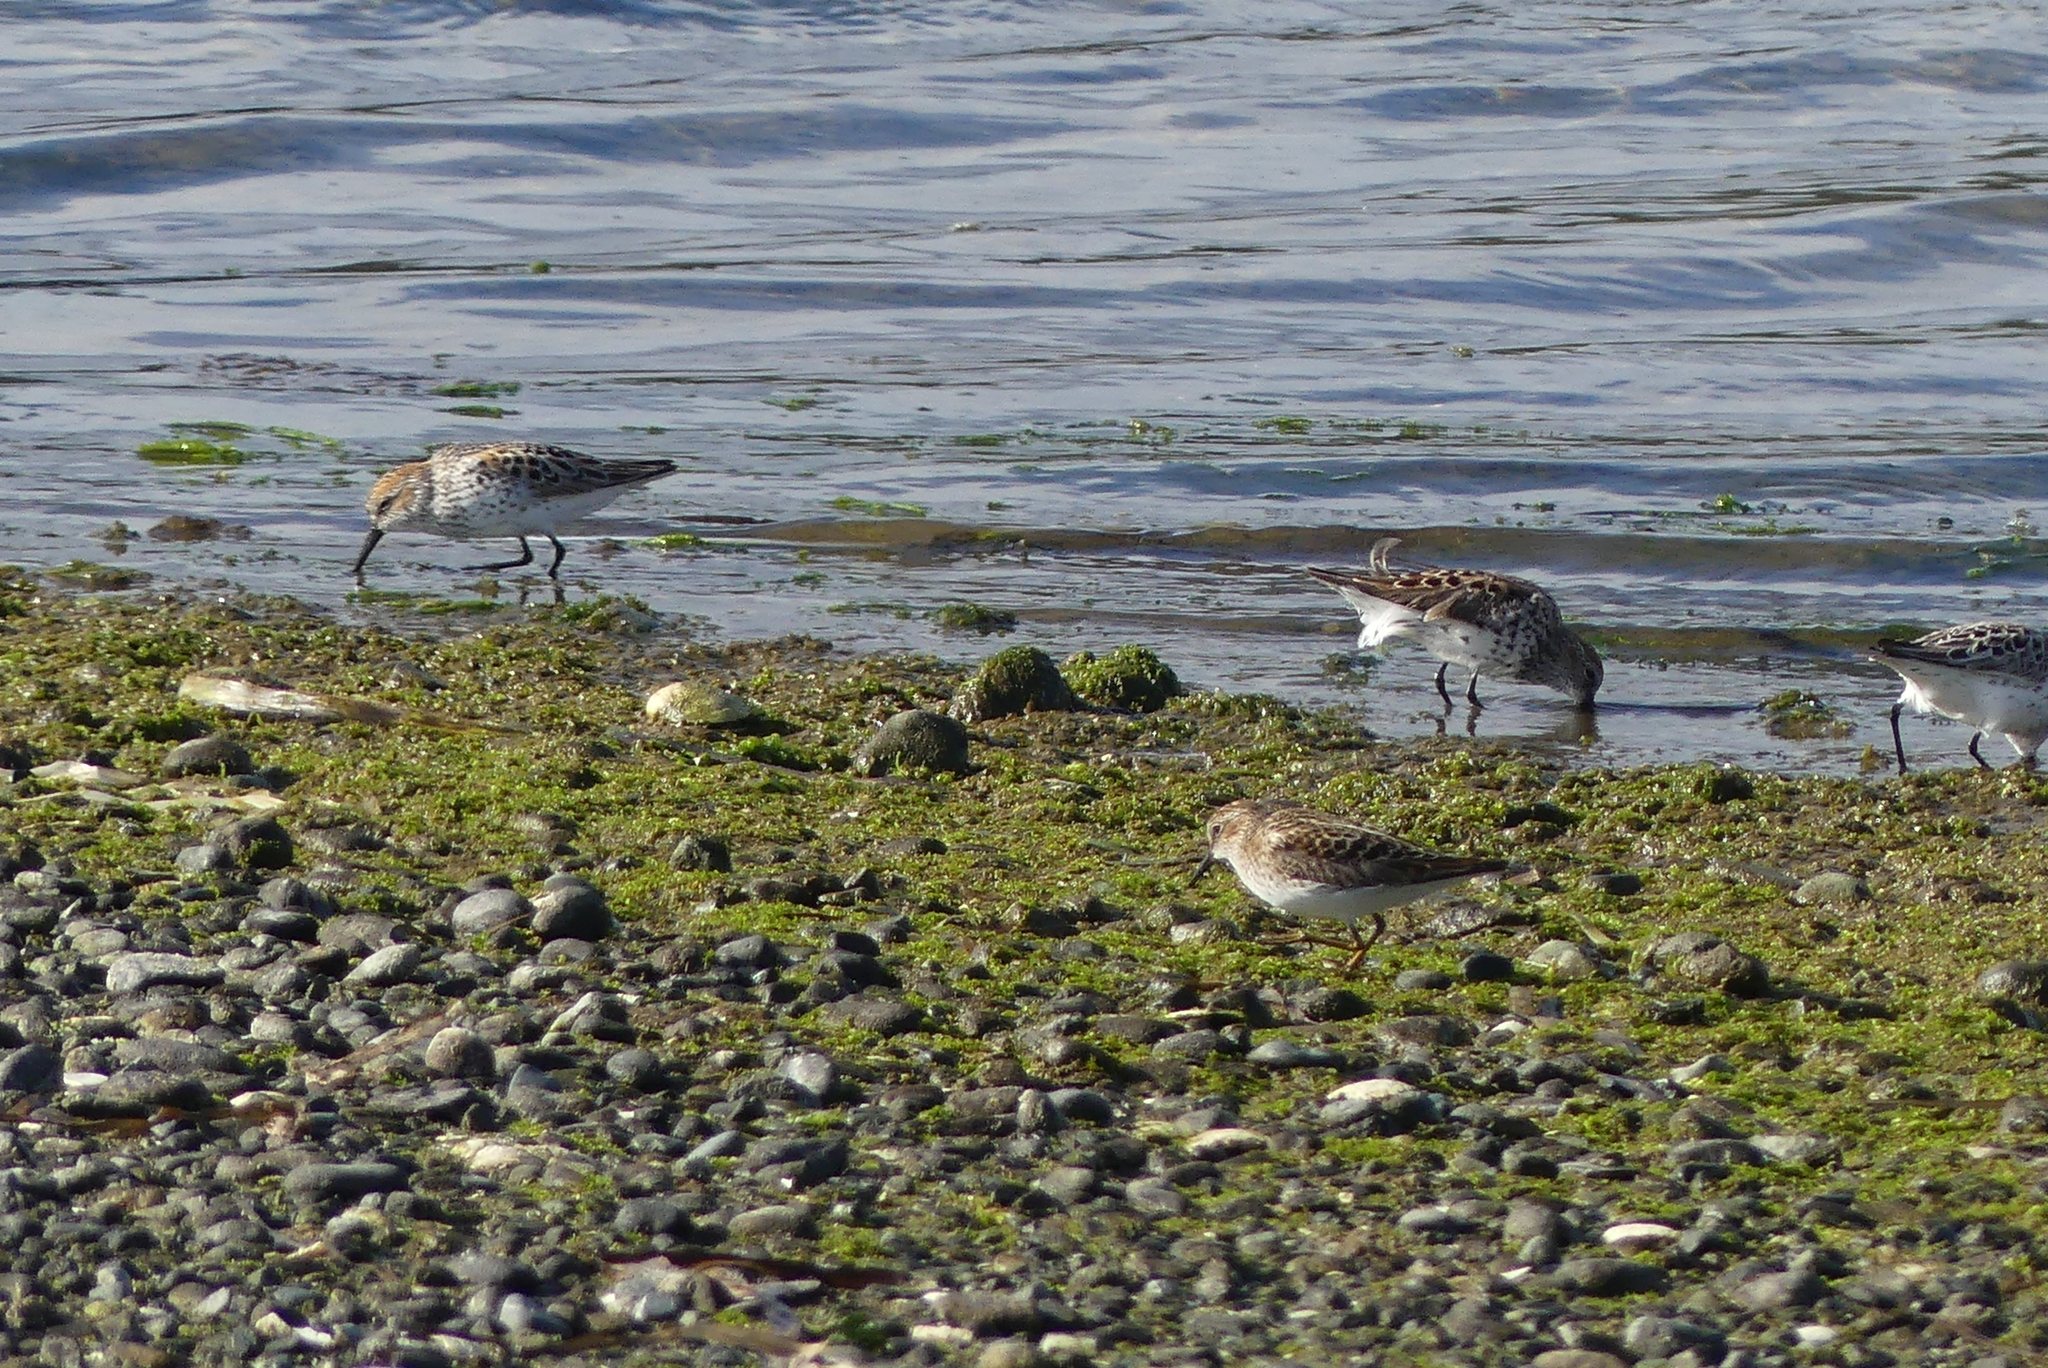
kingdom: Animalia
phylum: Chordata
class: Aves
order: Charadriiformes
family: Scolopacidae
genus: Calidris
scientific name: Calidris minutilla
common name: Least sandpiper
